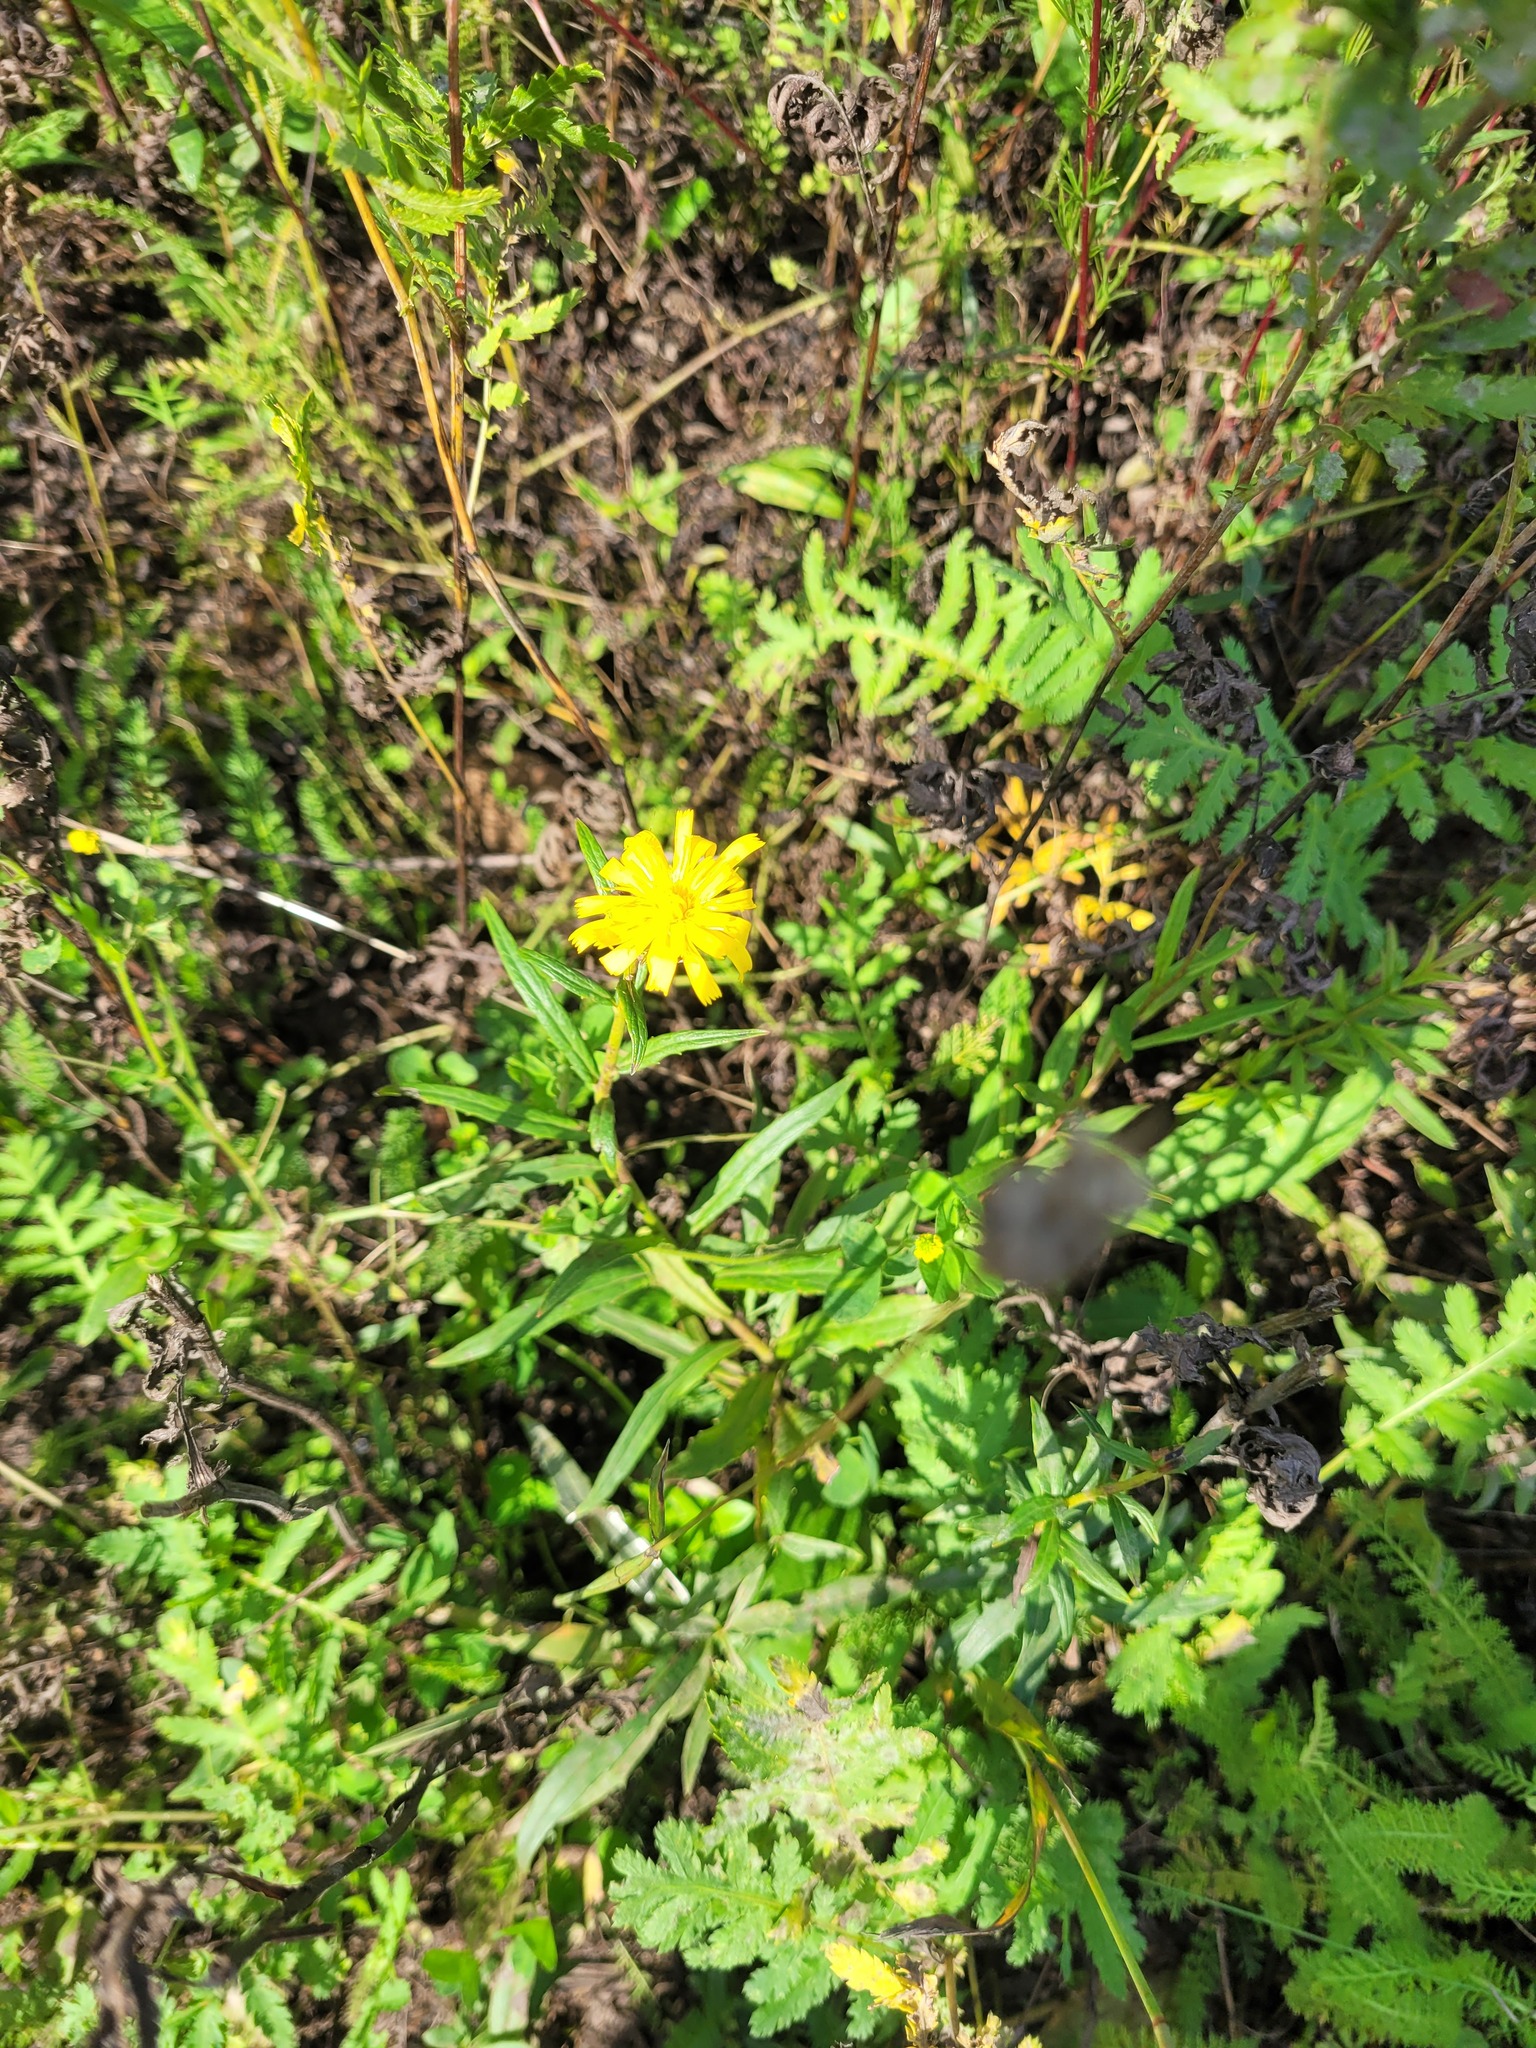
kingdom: Plantae
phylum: Tracheophyta
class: Magnoliopsida
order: Asterales
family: Asteraceae
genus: Hieracium
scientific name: Hieracium umbellatum
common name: Northern hawkweed
